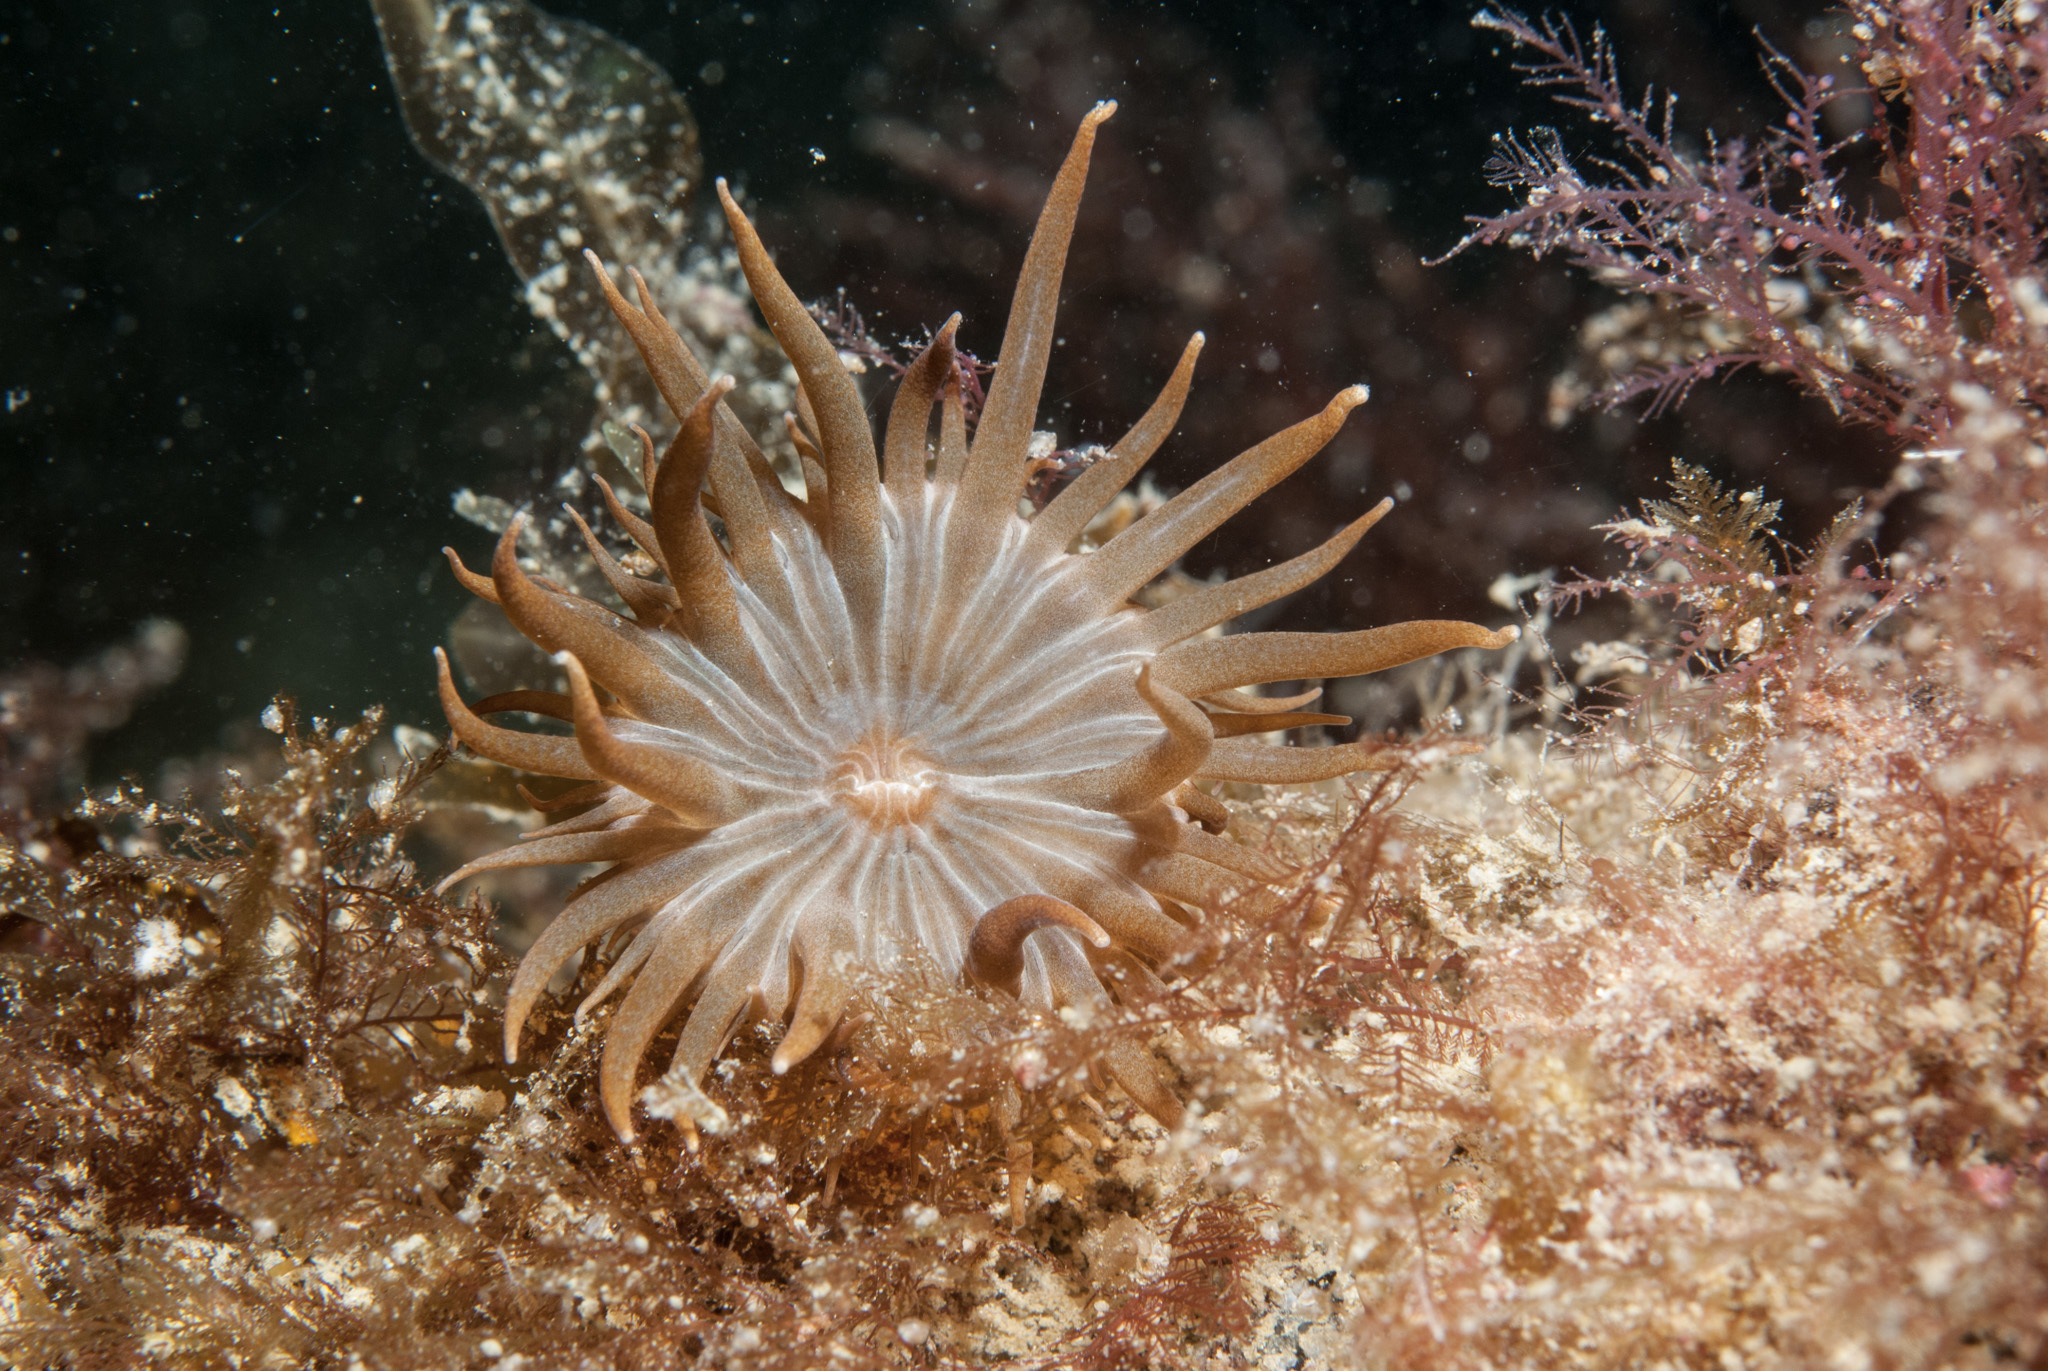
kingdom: Animalia
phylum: Cnidaria
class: Anthozoa
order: Actiniaria
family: Aiptasiidae
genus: Aiptasia
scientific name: Aiptasia couchii
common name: Trumpet anemone
